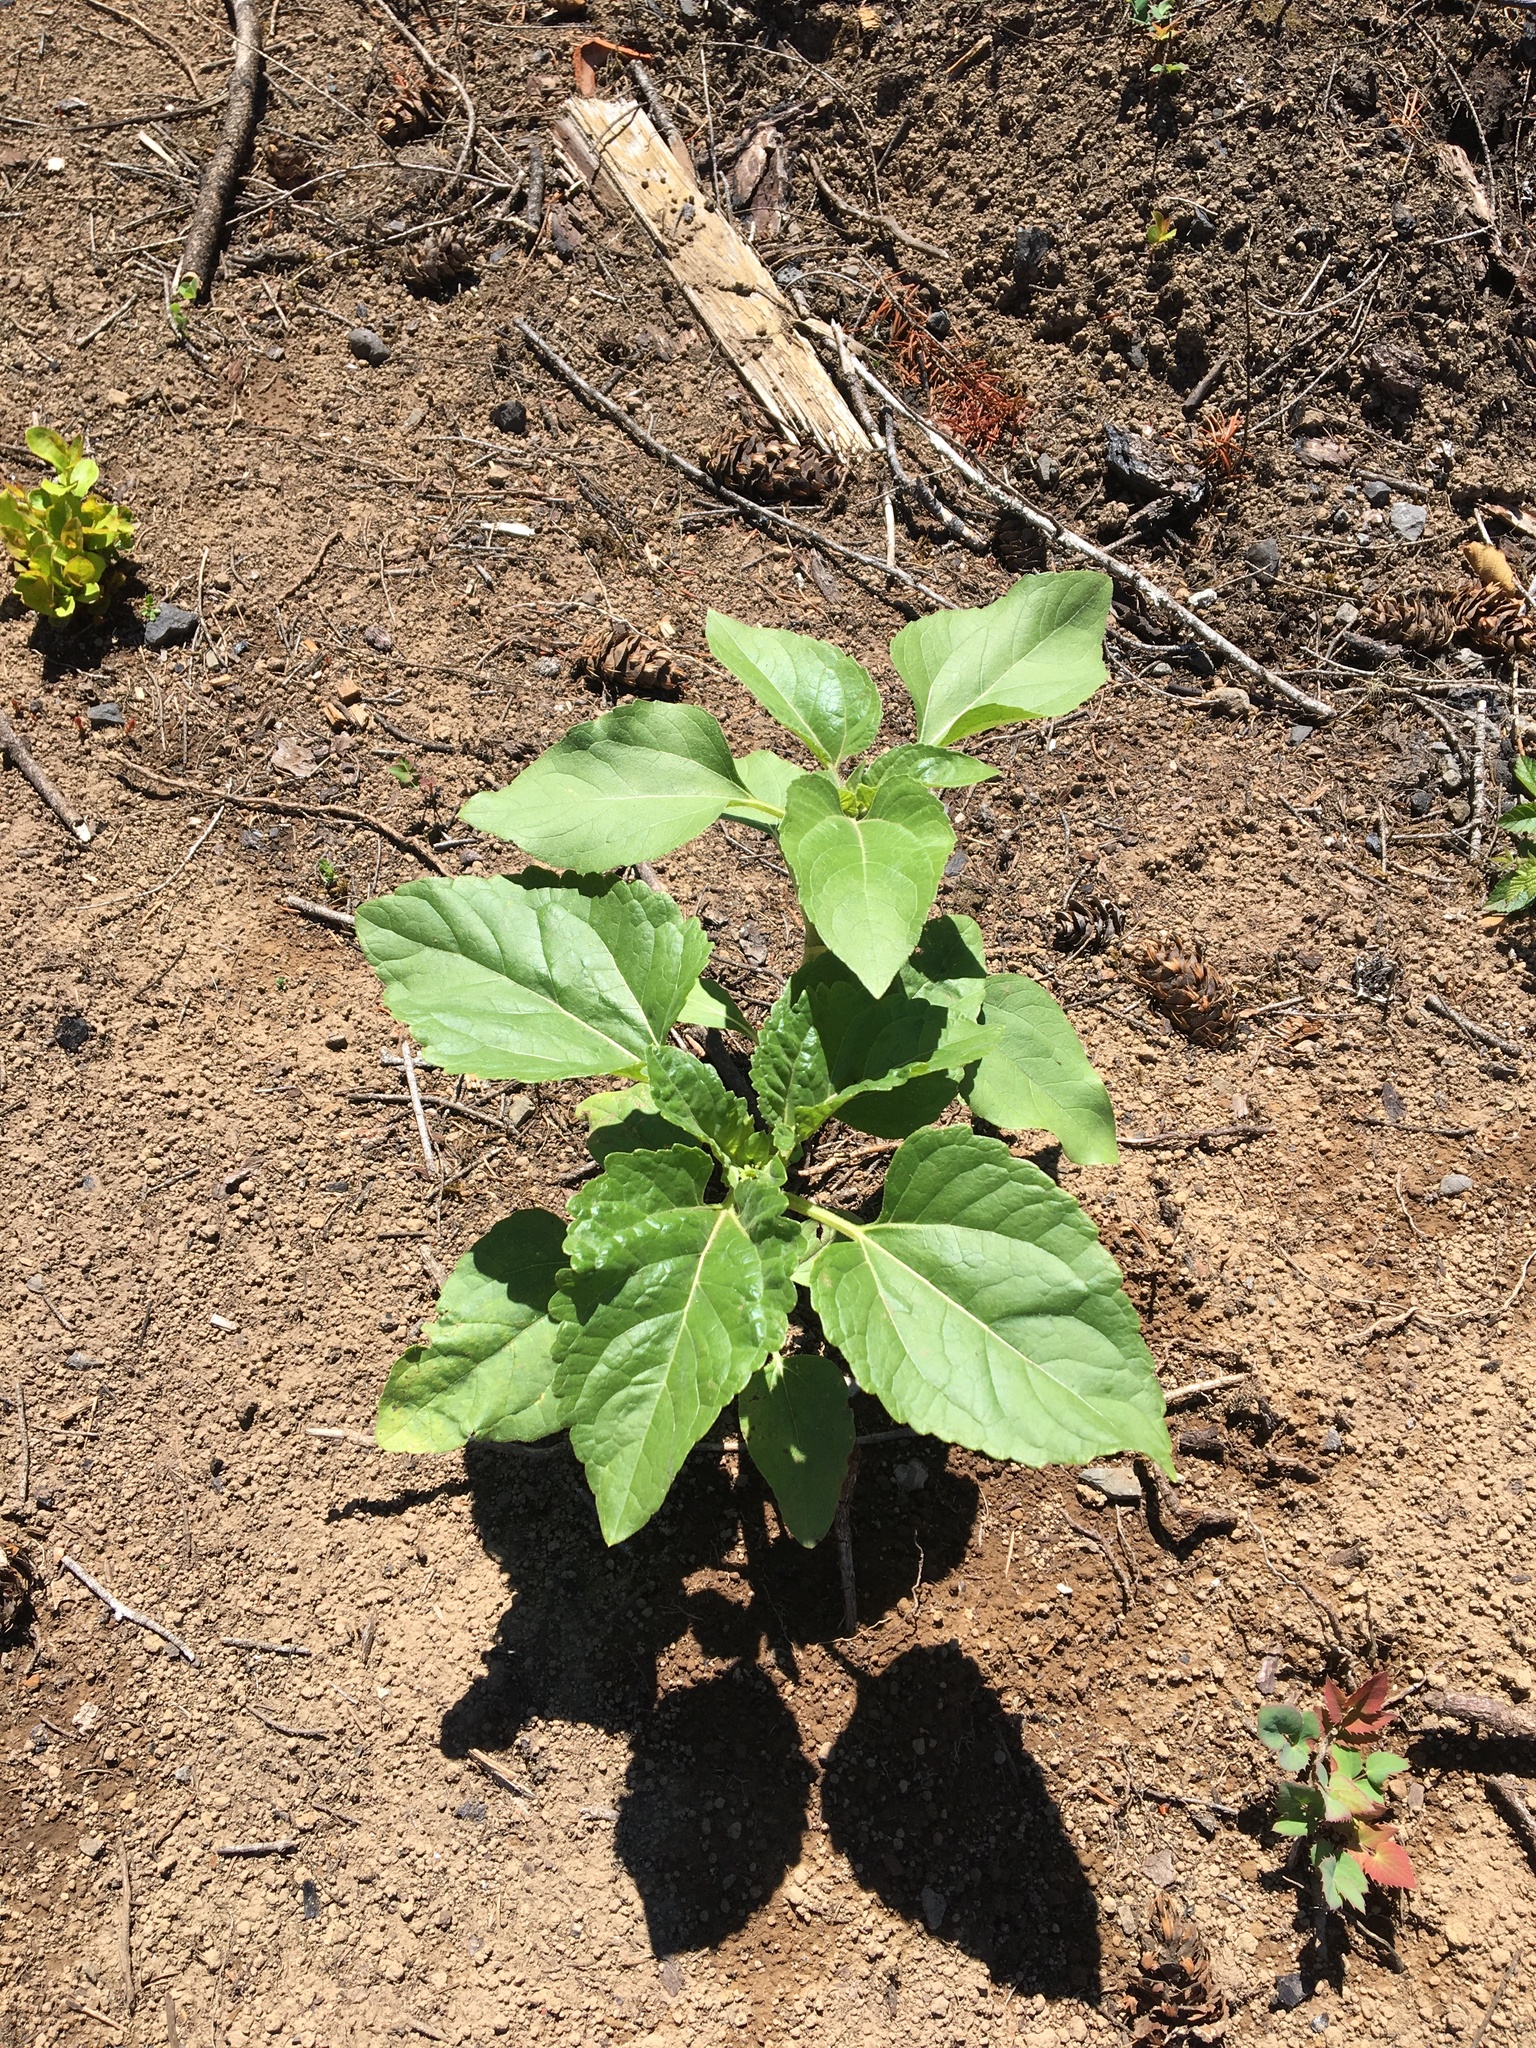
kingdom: Plantae
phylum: Tracheophyta
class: Magnoliopsida
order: Asterales
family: Asteraceae
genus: Helianthus
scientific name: Helianthus annuus
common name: Sunflower
